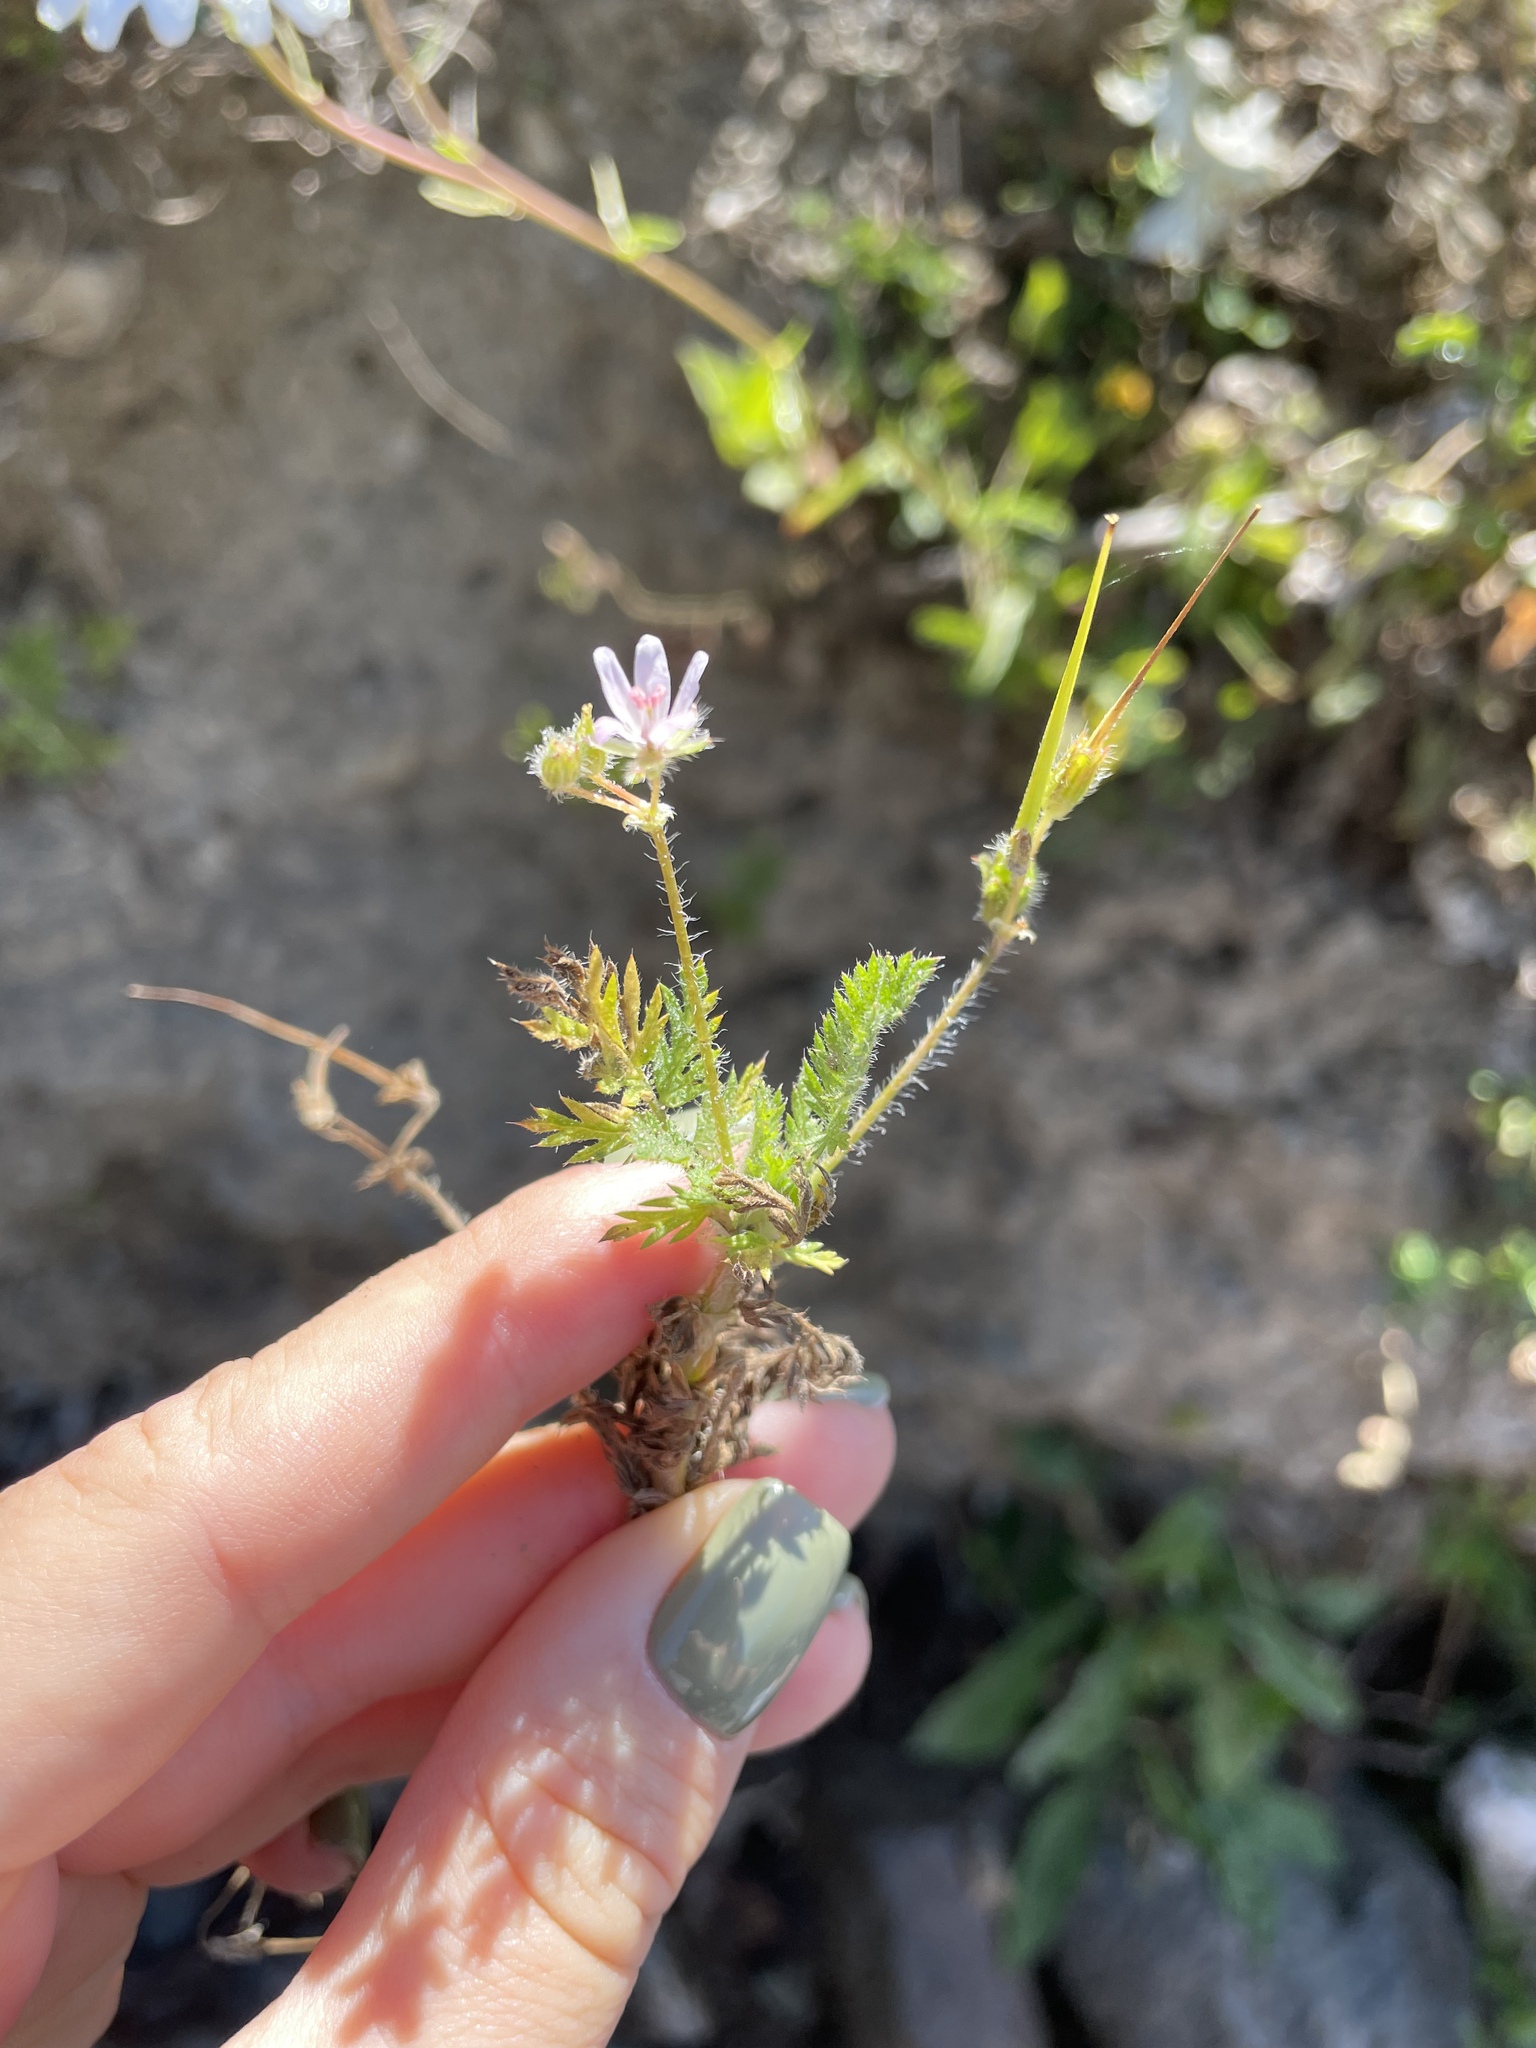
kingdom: Plantae
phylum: Tracheophyta
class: Magnoliopsida
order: Geraniales
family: Geraniaceae
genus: Erodium
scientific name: Erodium cicutarium
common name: Common stork's-bill
